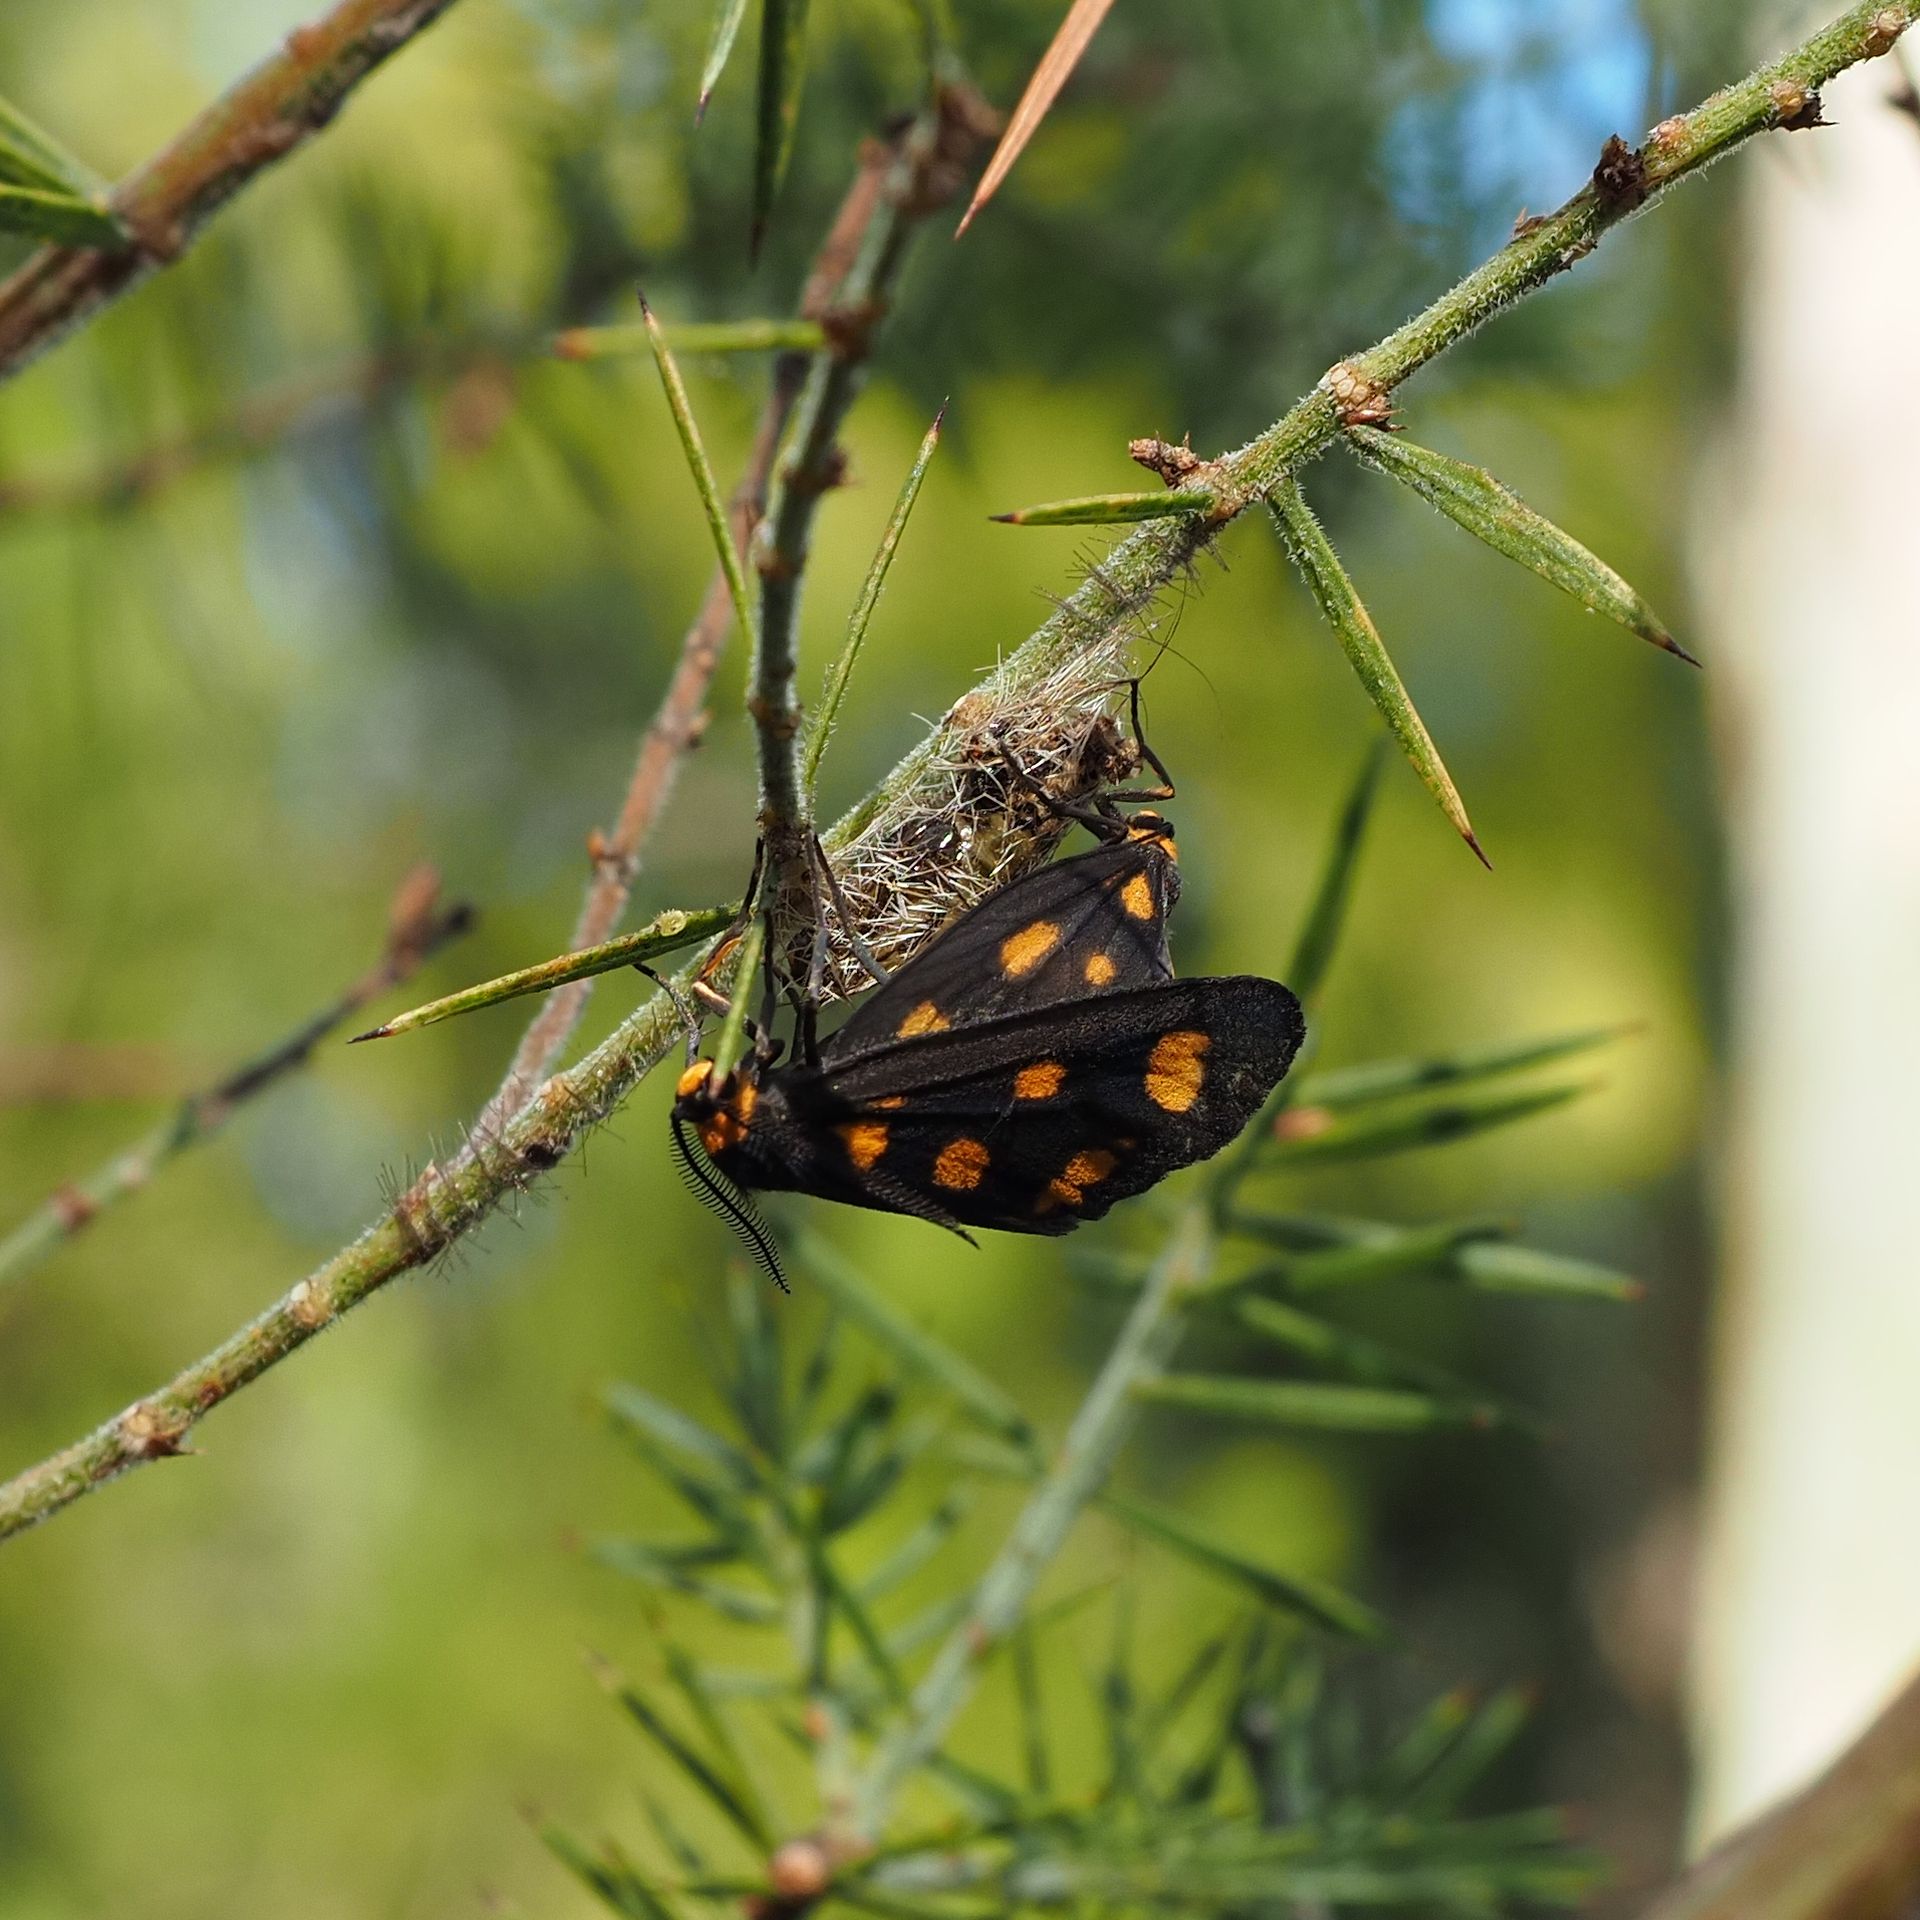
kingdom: Animalia
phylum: Arthropoda
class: Insecta
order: Lepidoptera
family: Erebidae
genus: Asura
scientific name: Asura cervicalis
